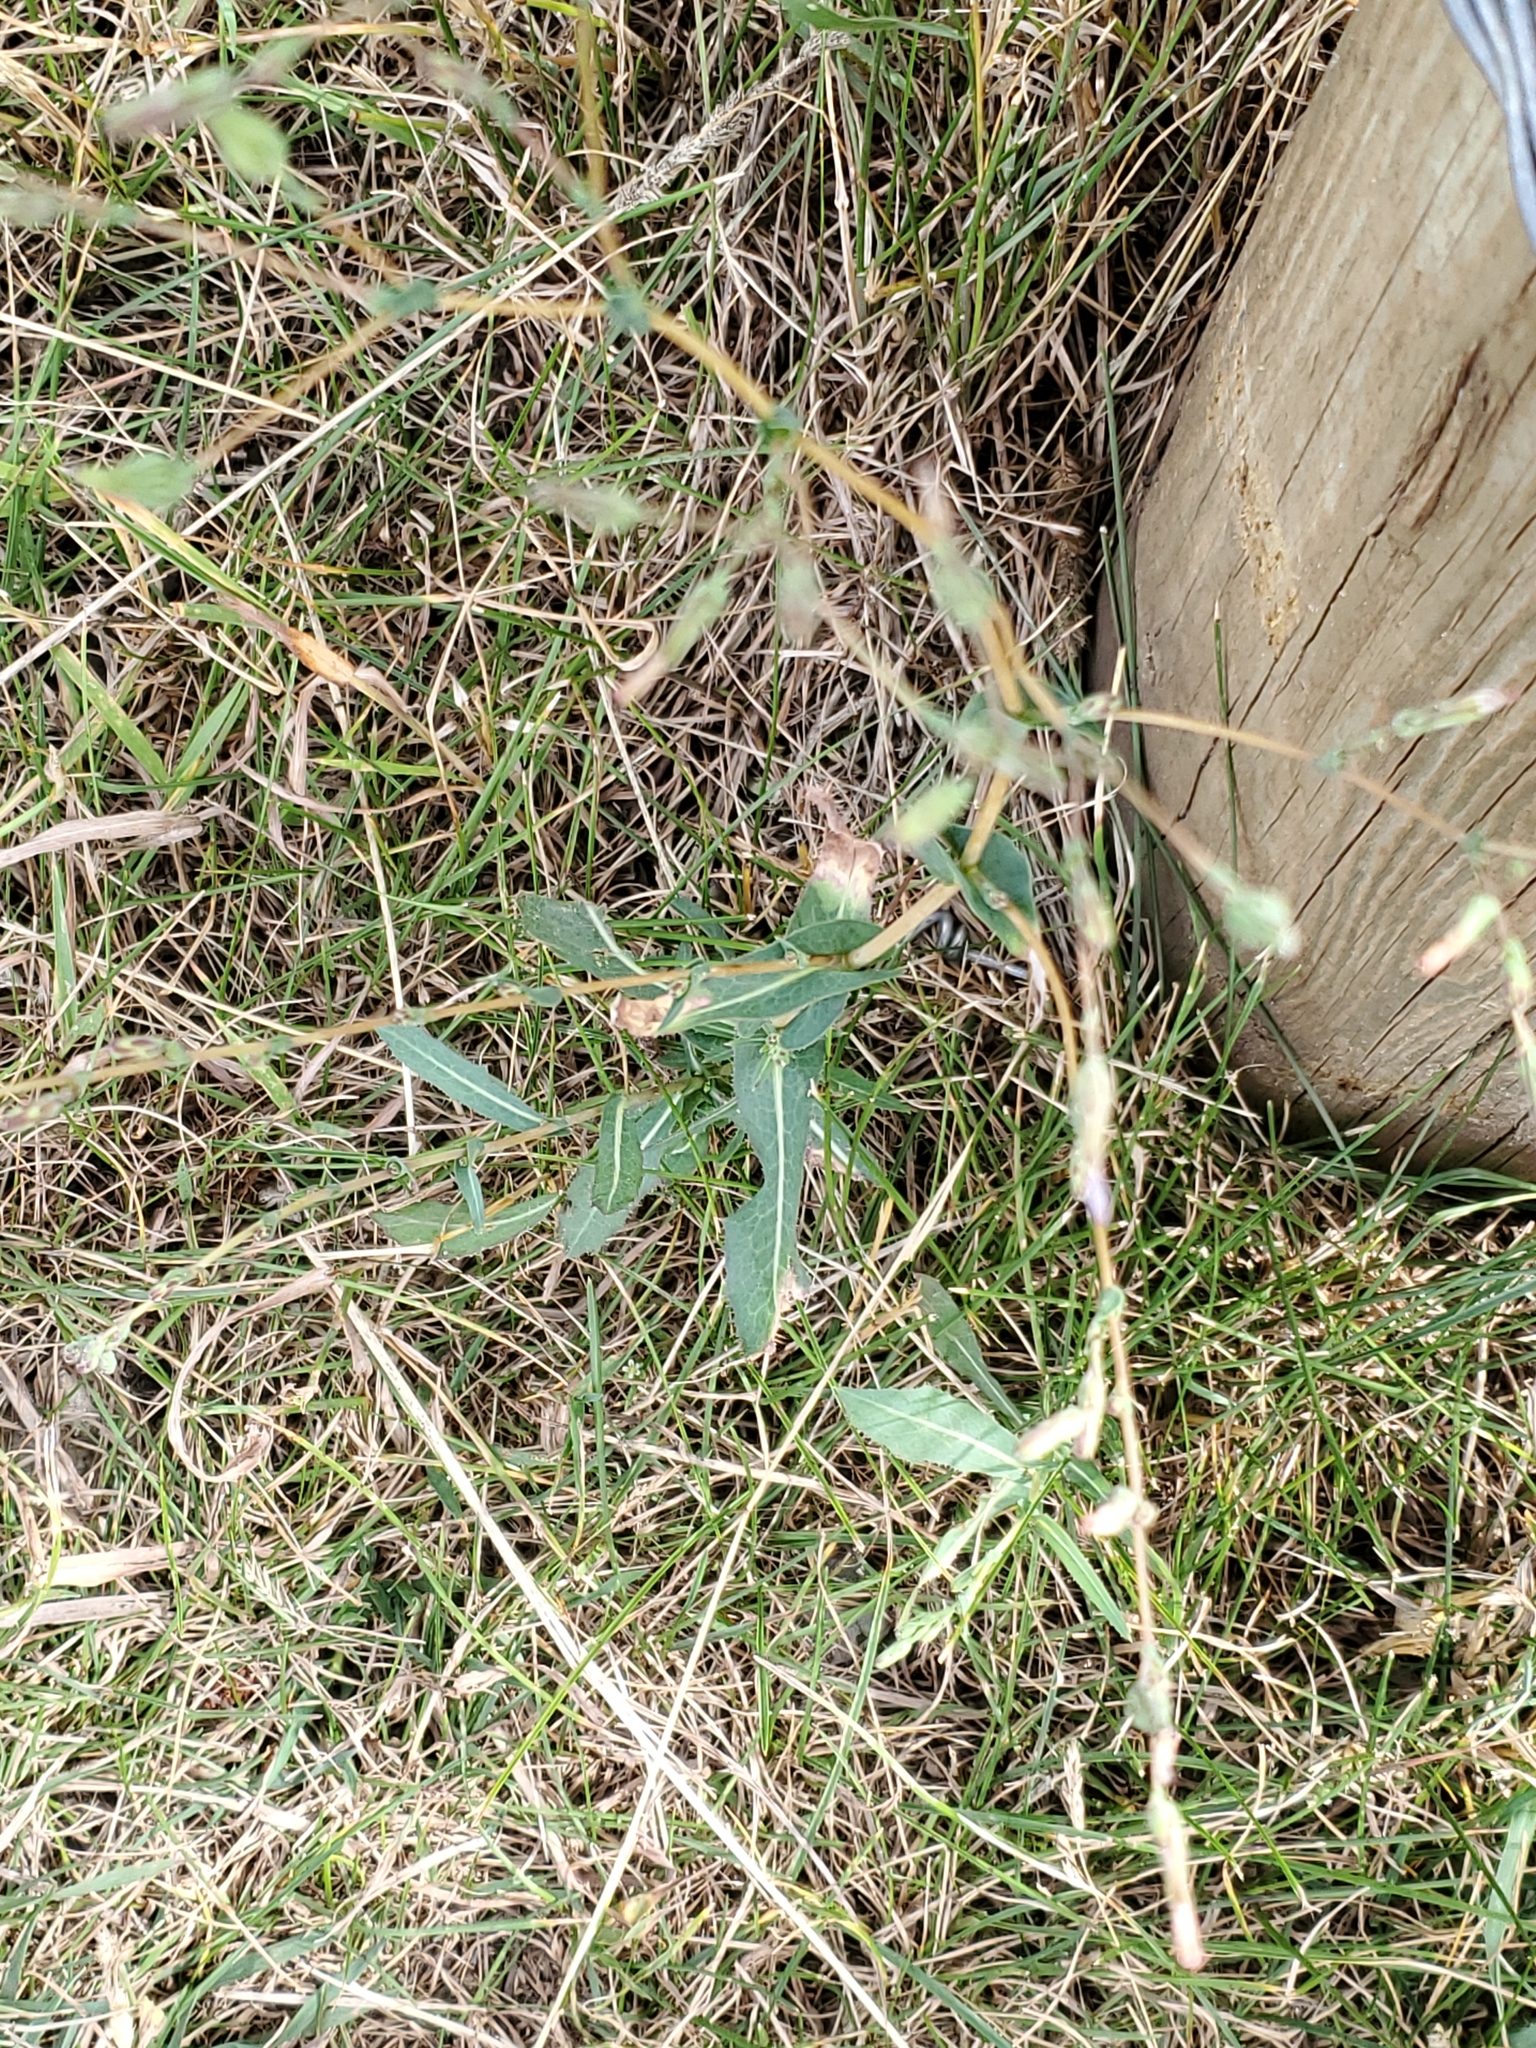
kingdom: Plantae
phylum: Tracheophyta
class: Magnoliopsida
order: Asterales
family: Asteraceae
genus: Lactuca
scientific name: Lactuca serriola
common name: Prickly lettuce
